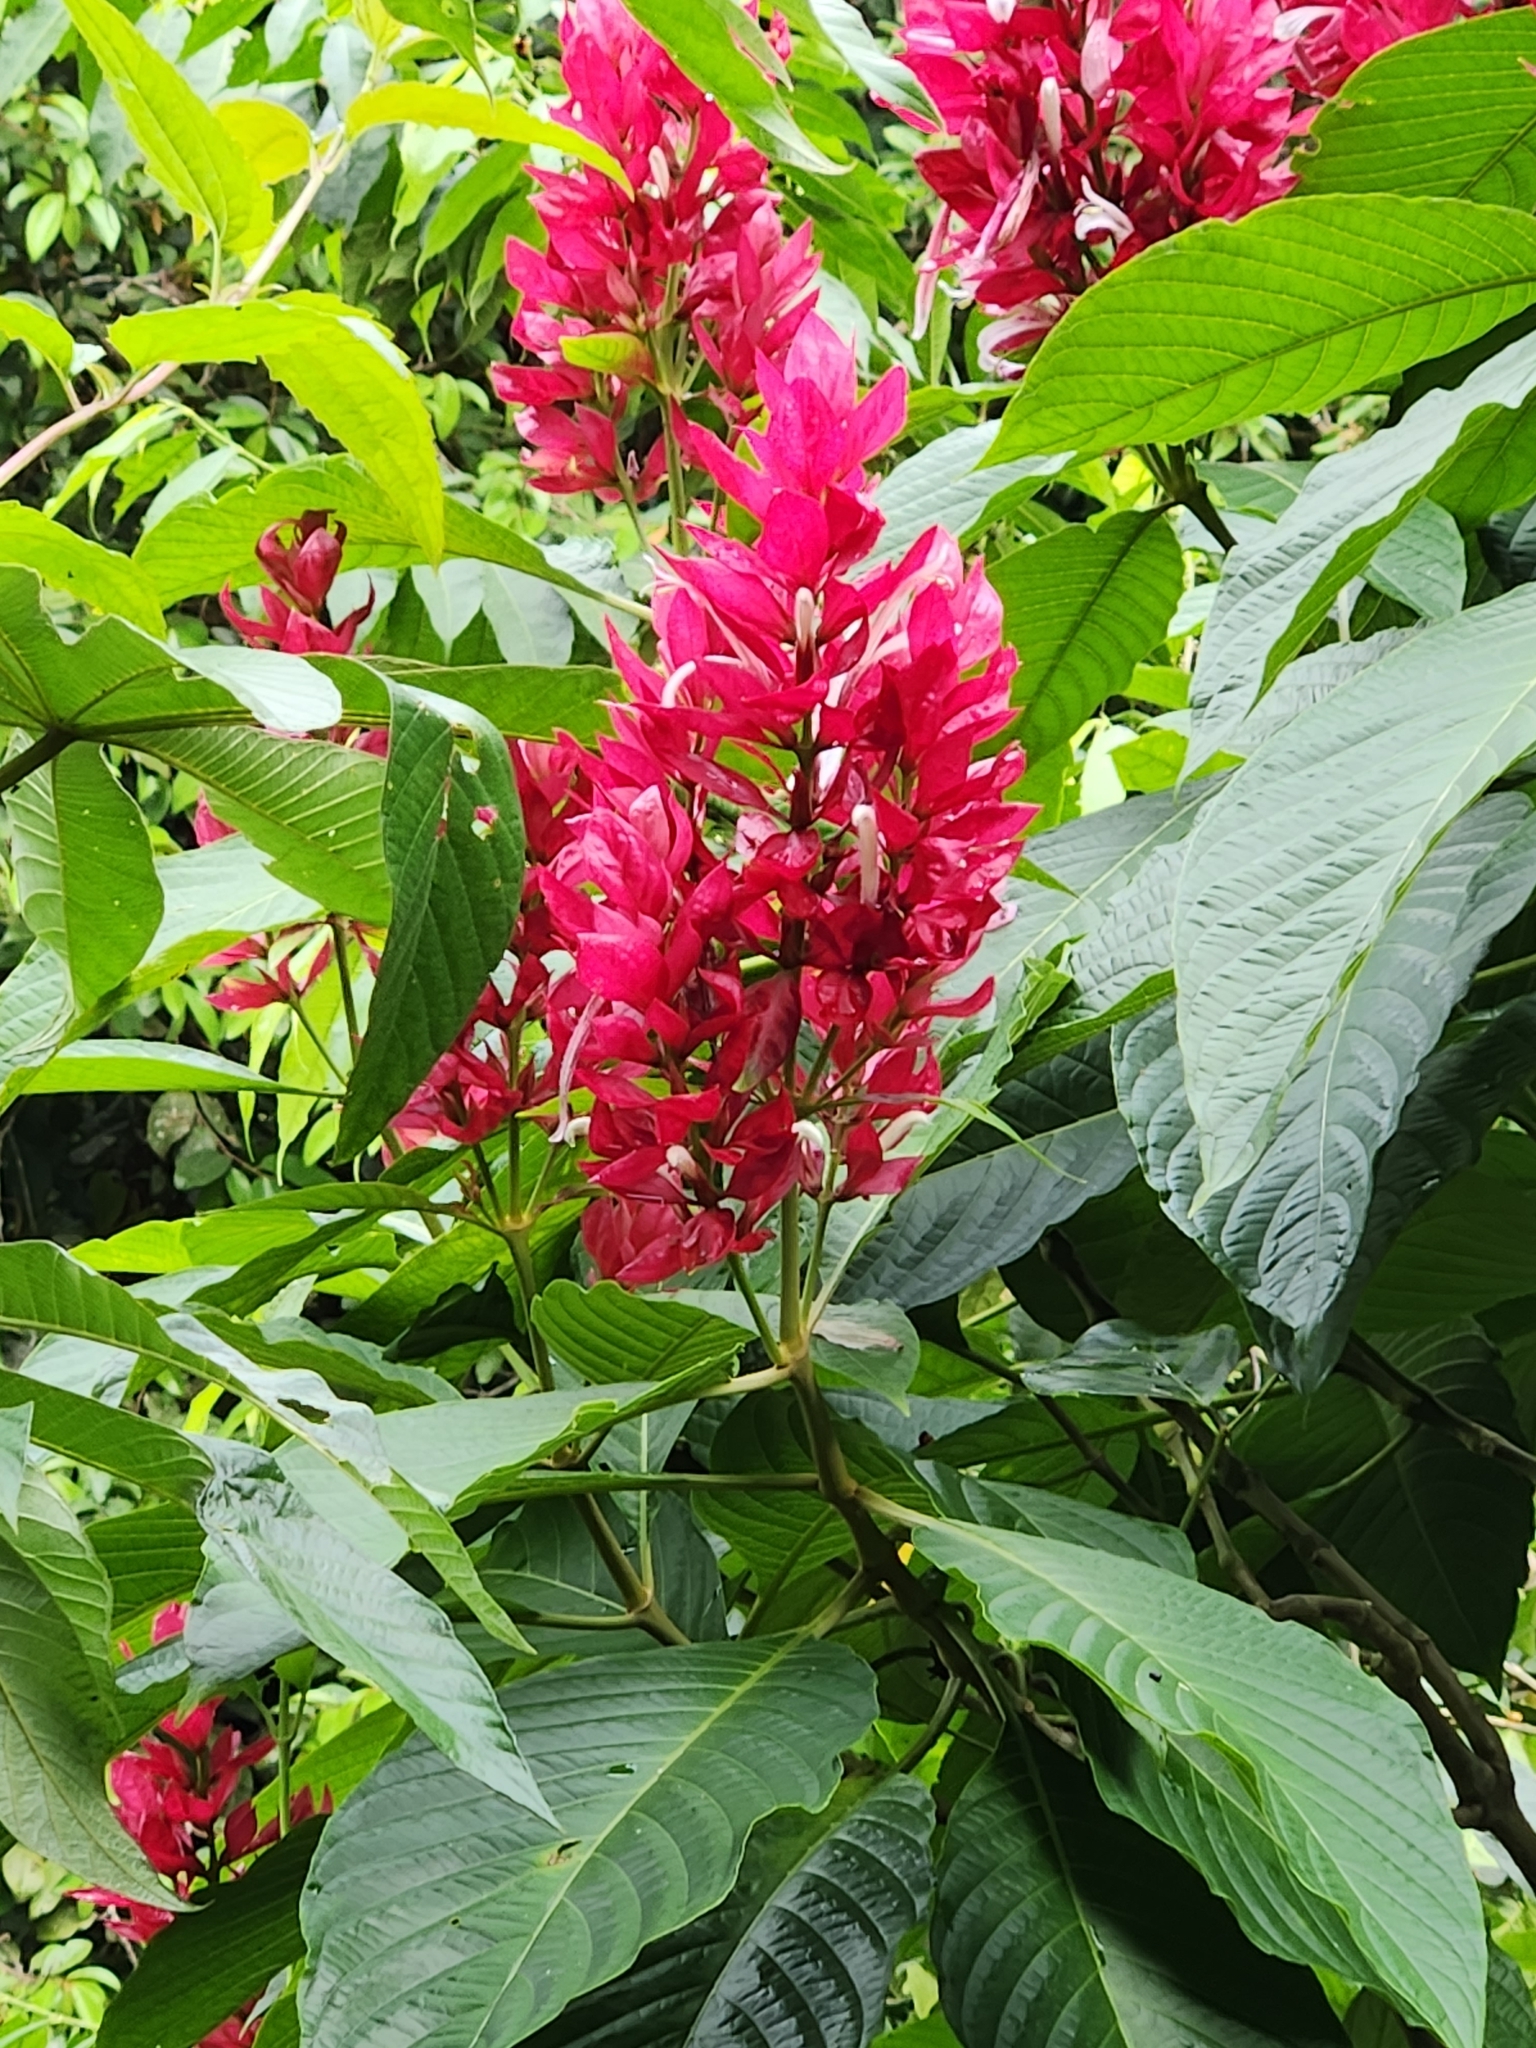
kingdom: Plantae
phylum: Tracheophyta
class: Magnoliopsida
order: Lamiales
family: Acanthaceae
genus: Megaskepasma
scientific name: Megaskepasma erythrochlamys
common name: Brazilian red-cloak
